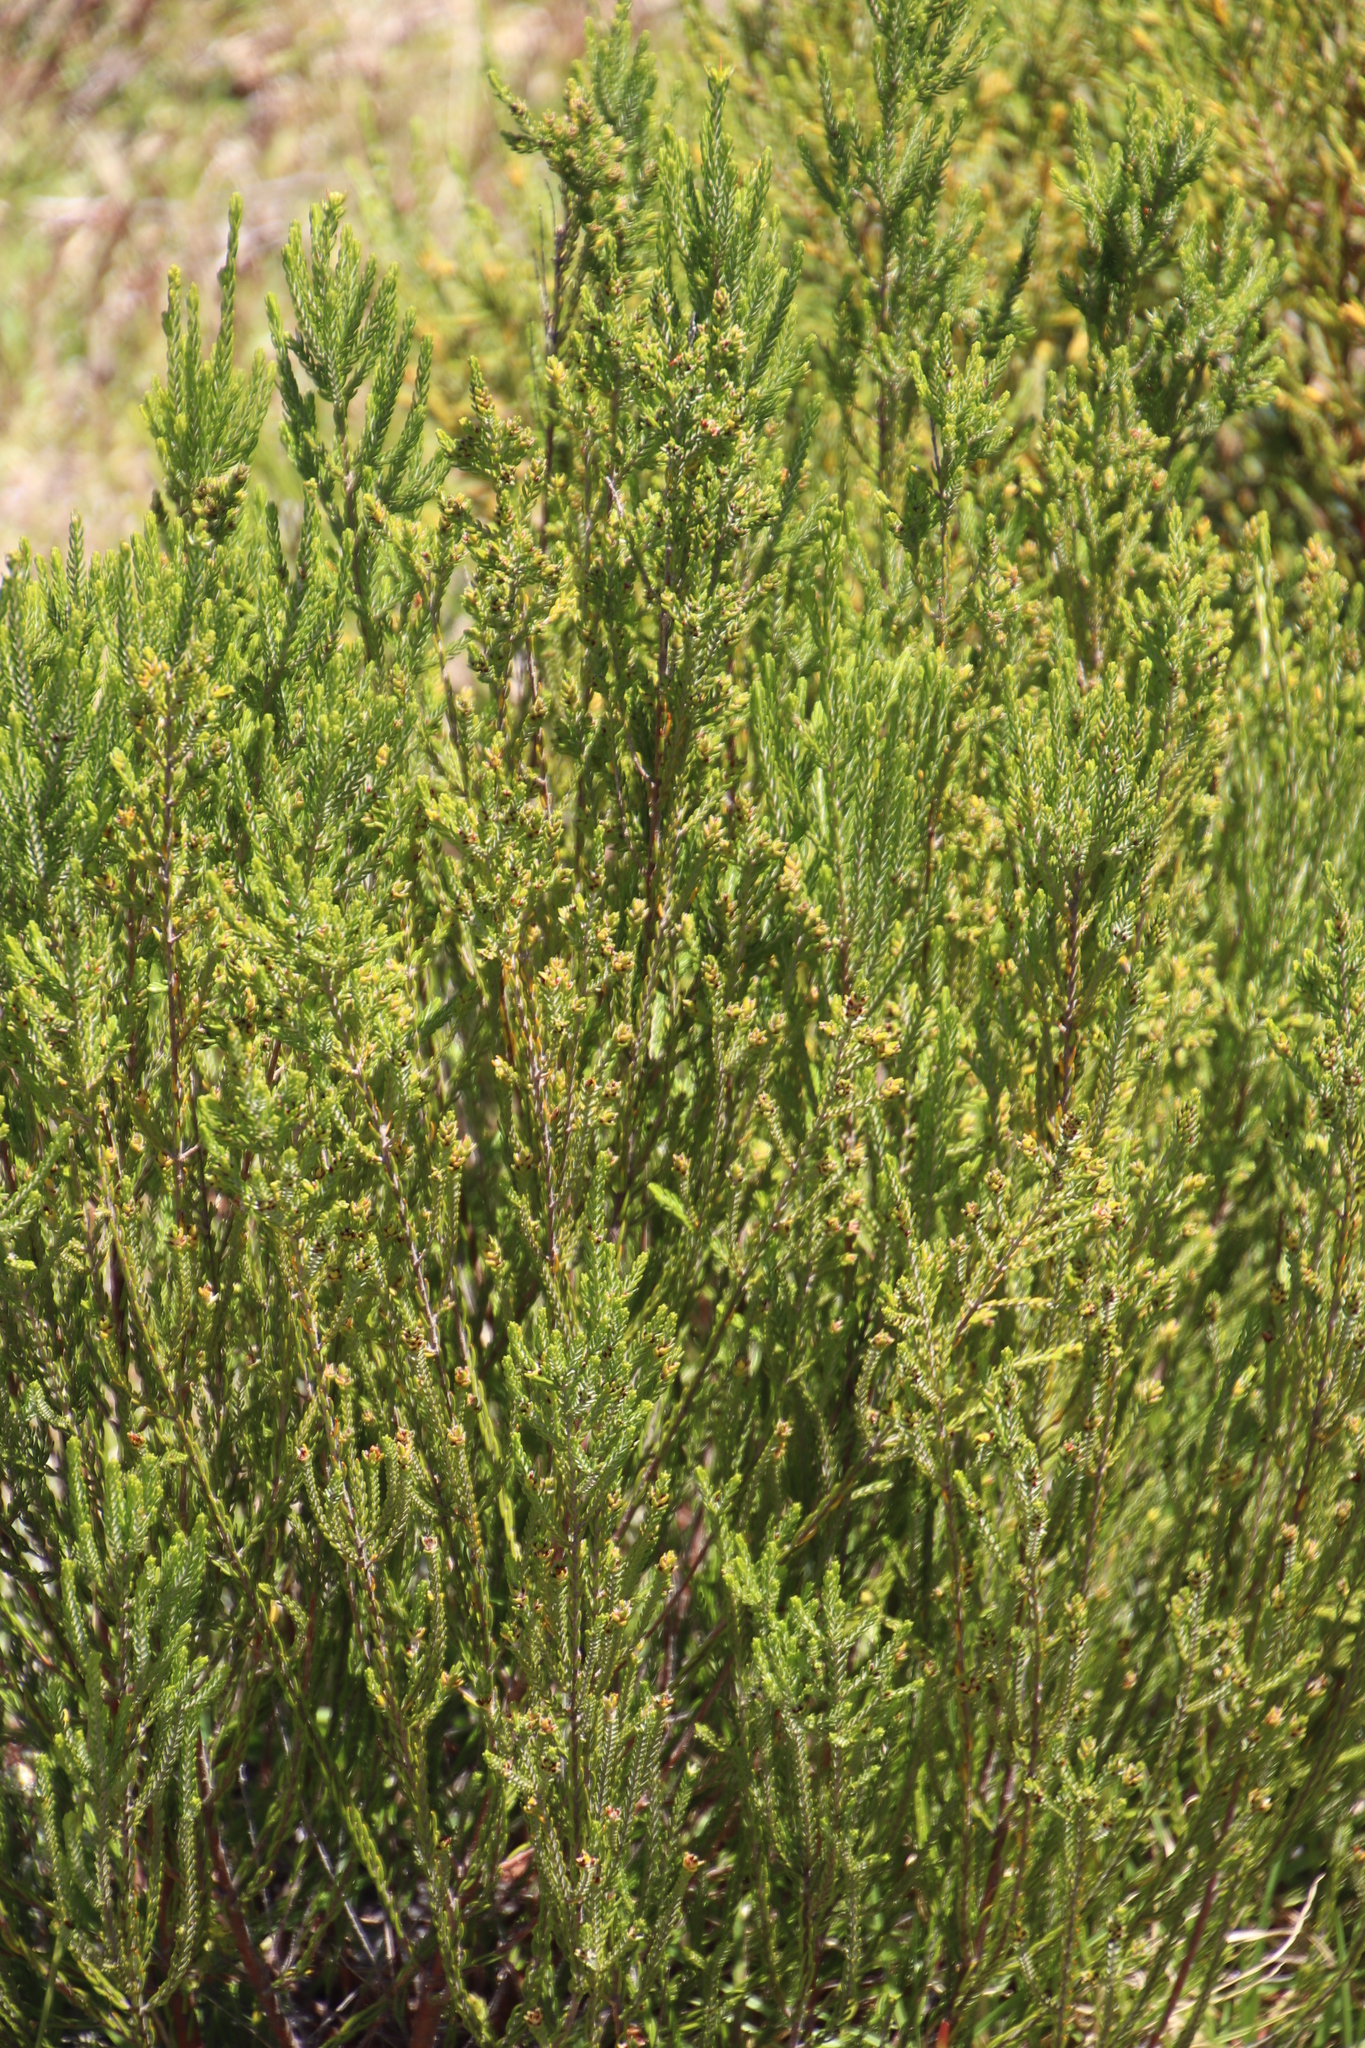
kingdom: Plantae
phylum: Tracheophyta
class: Magnoliopsida
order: Malvales
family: Thymelaeaceae
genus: Passerina
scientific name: Passerina corymbosa
